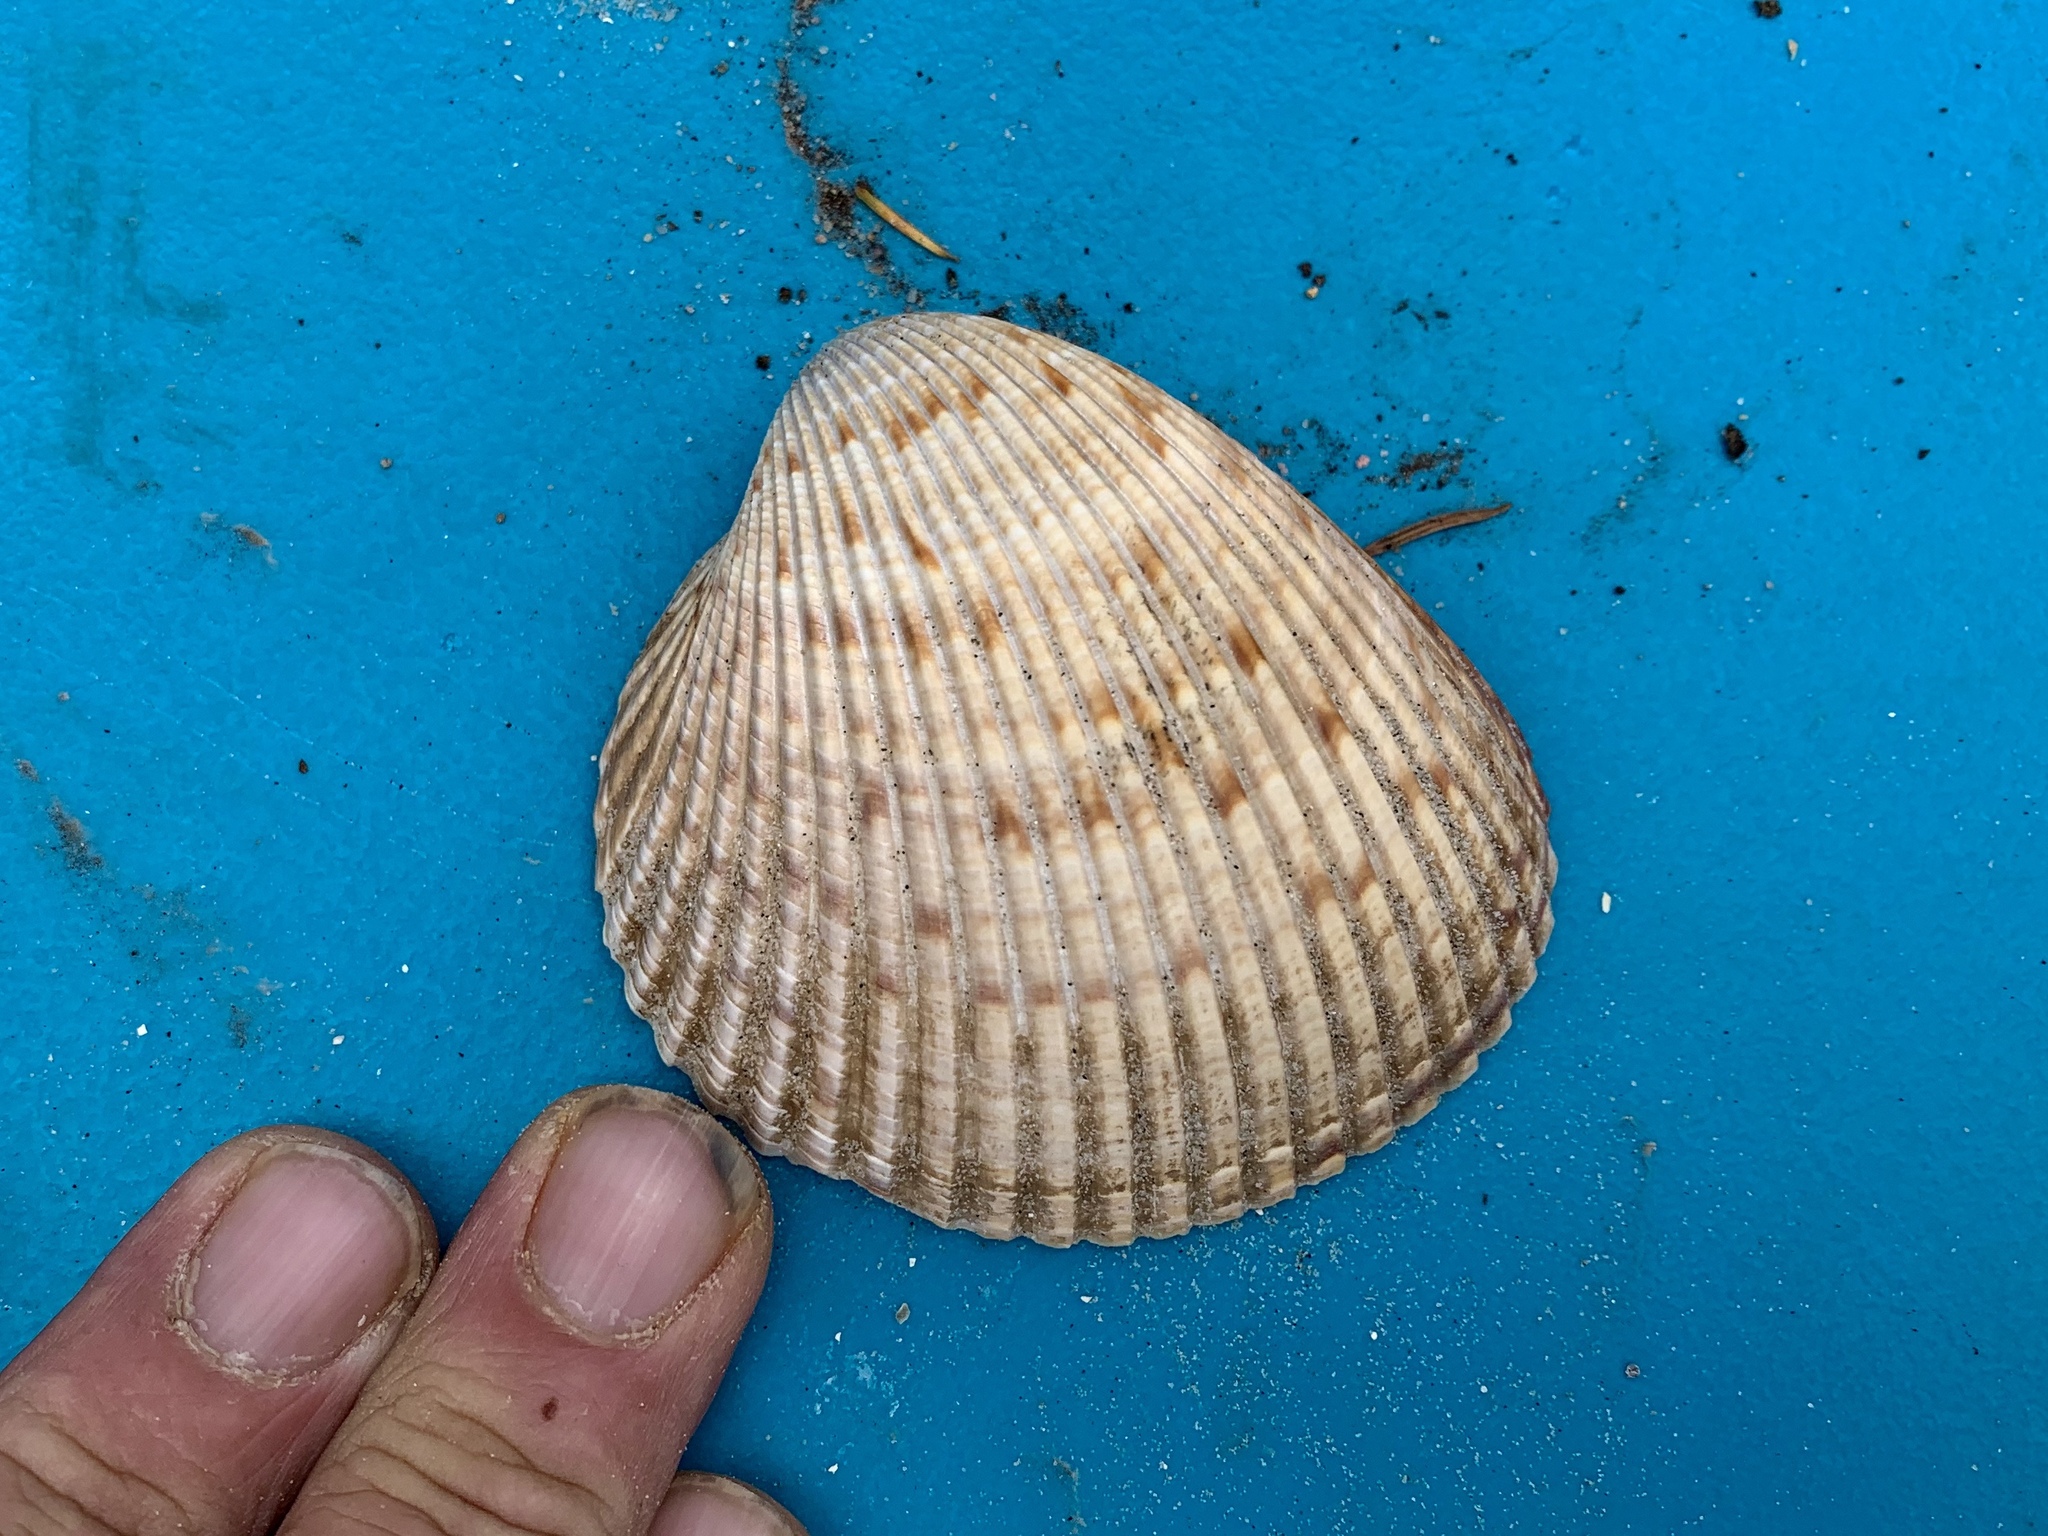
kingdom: Animalia
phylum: Mollusca
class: Bivalvia
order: Cardiida
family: Cardiidae
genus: Dinocardium
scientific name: Dinocardium robustum
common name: Atlantic giant cockle
